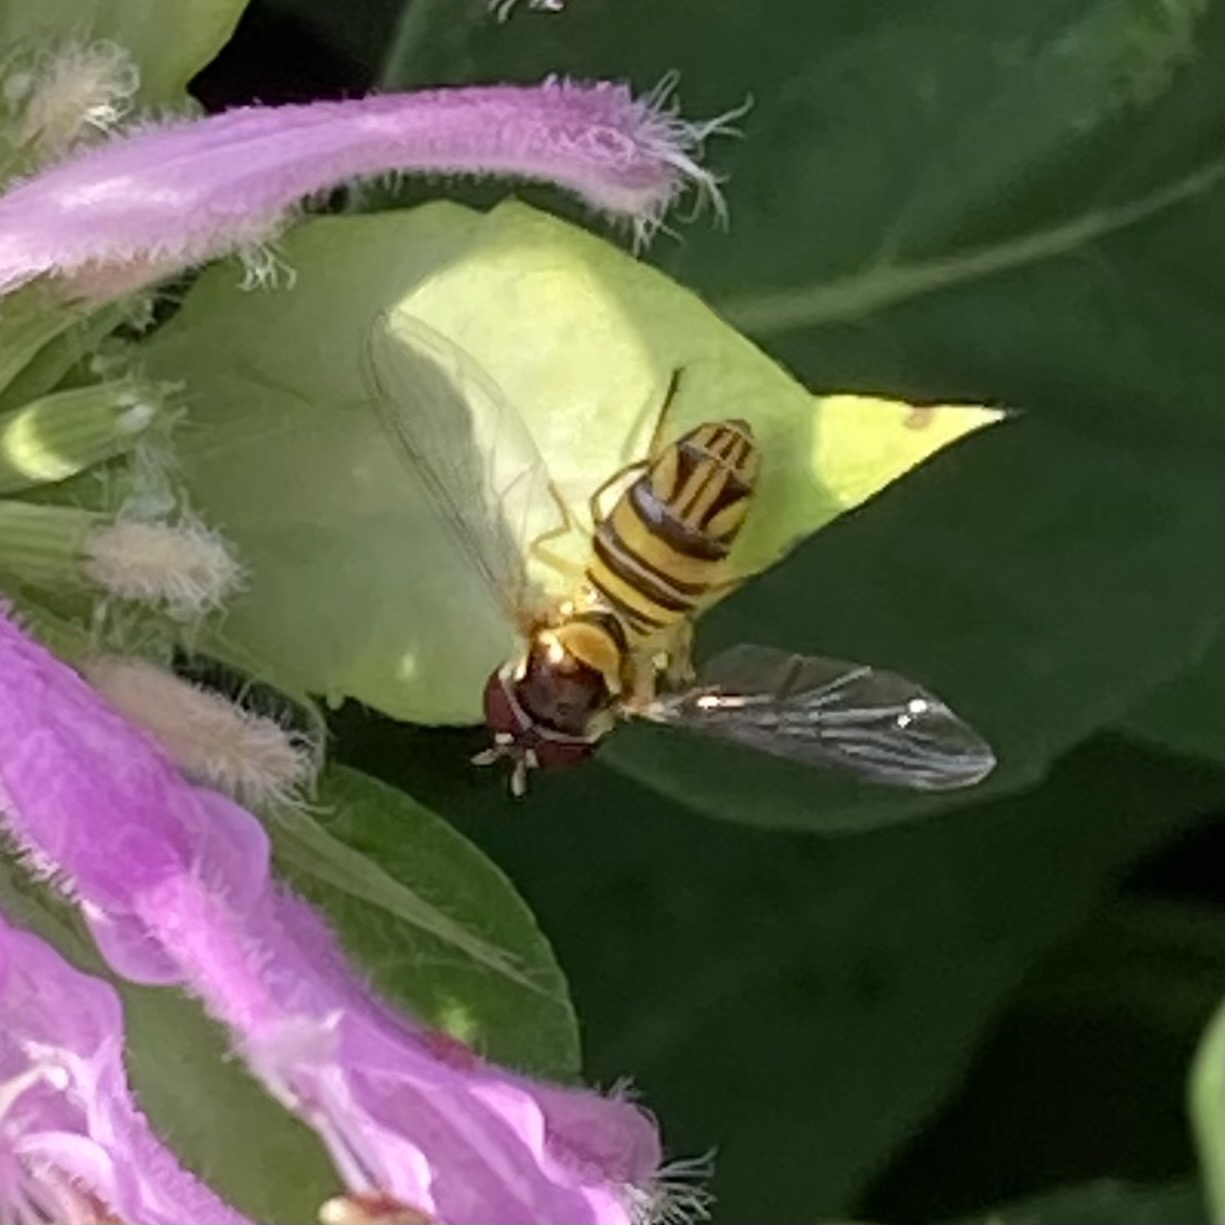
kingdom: Animalia
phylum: Arthropoda
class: Insecta
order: Diptera
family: Syrphidae
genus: Allograpta
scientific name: Allograpta obliqua
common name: Common oblique syrphid
